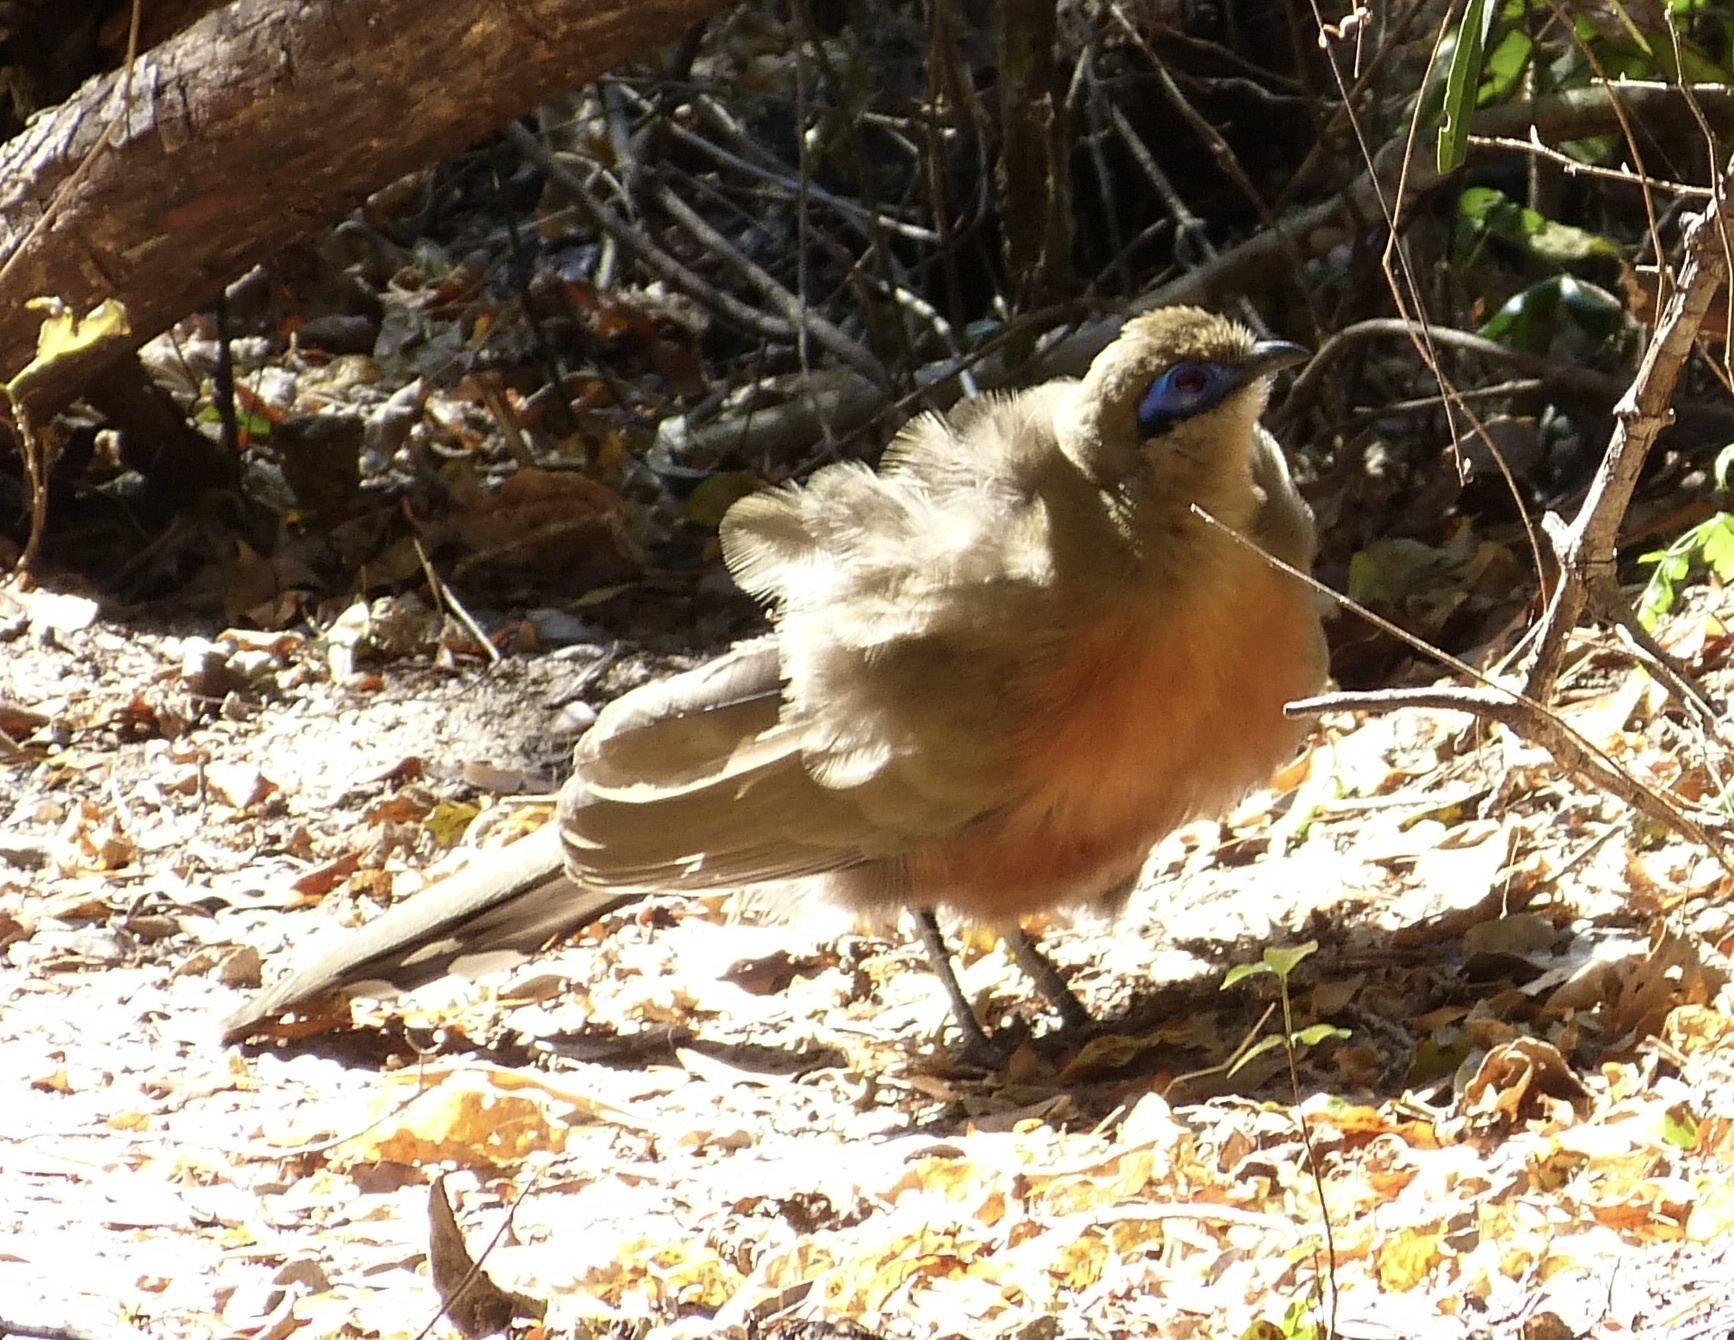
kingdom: Animalia
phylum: Chordata
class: Aves
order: Cuculiformes
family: Cuculidae
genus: Coua
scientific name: Coua coquereli
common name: Coquerel's coua
